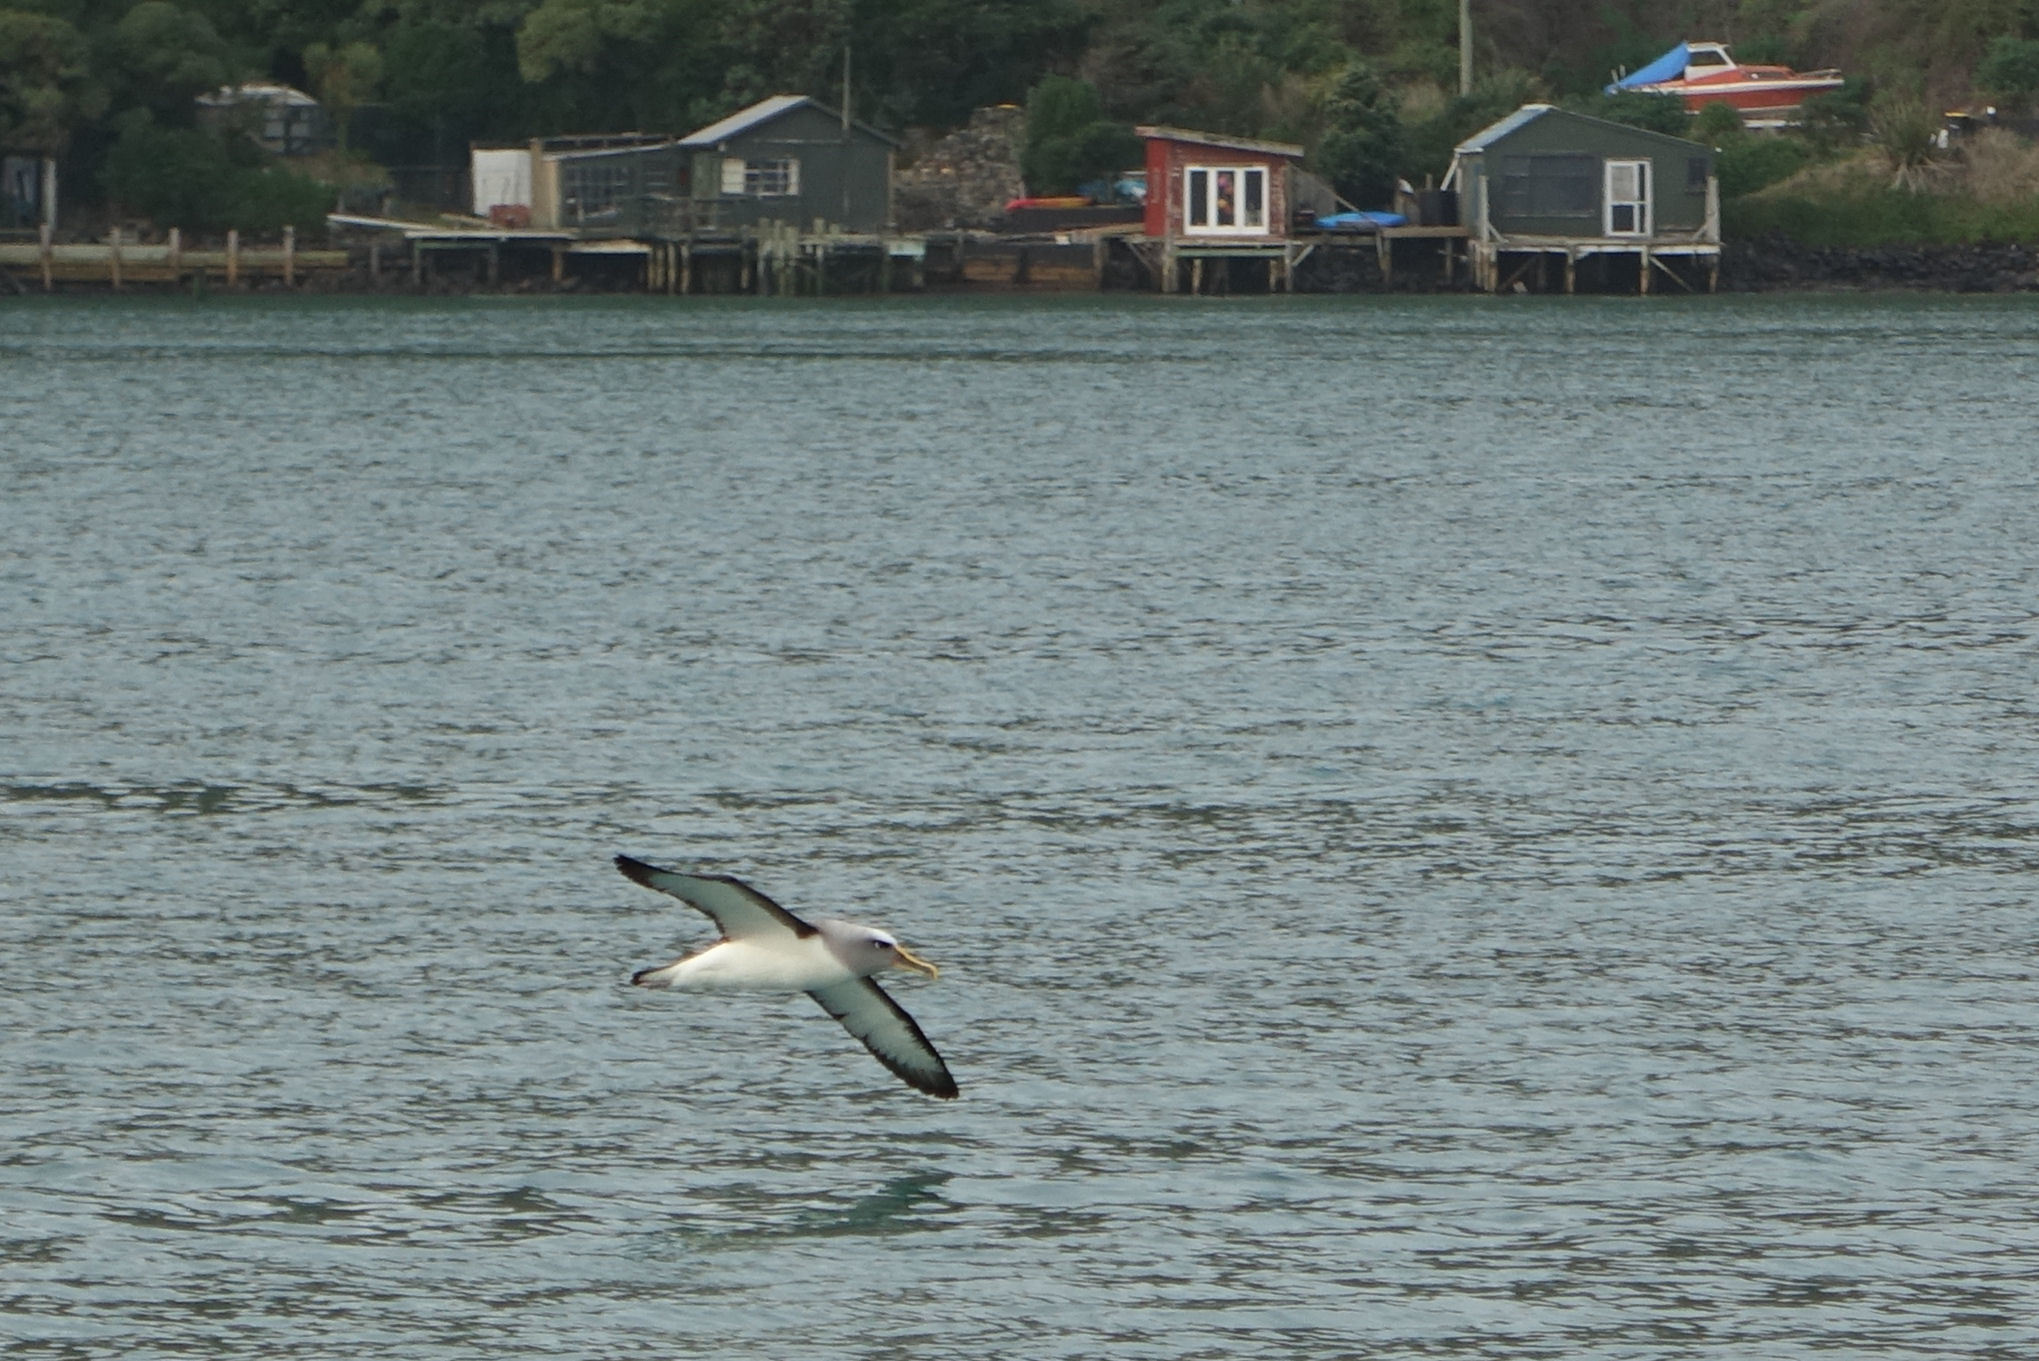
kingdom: Animalia
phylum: Chordata
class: Aves
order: Procellariiformes
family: Diomedeidae
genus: Thalassarche
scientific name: Thalassarche bulleri
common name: Buller's albatross
